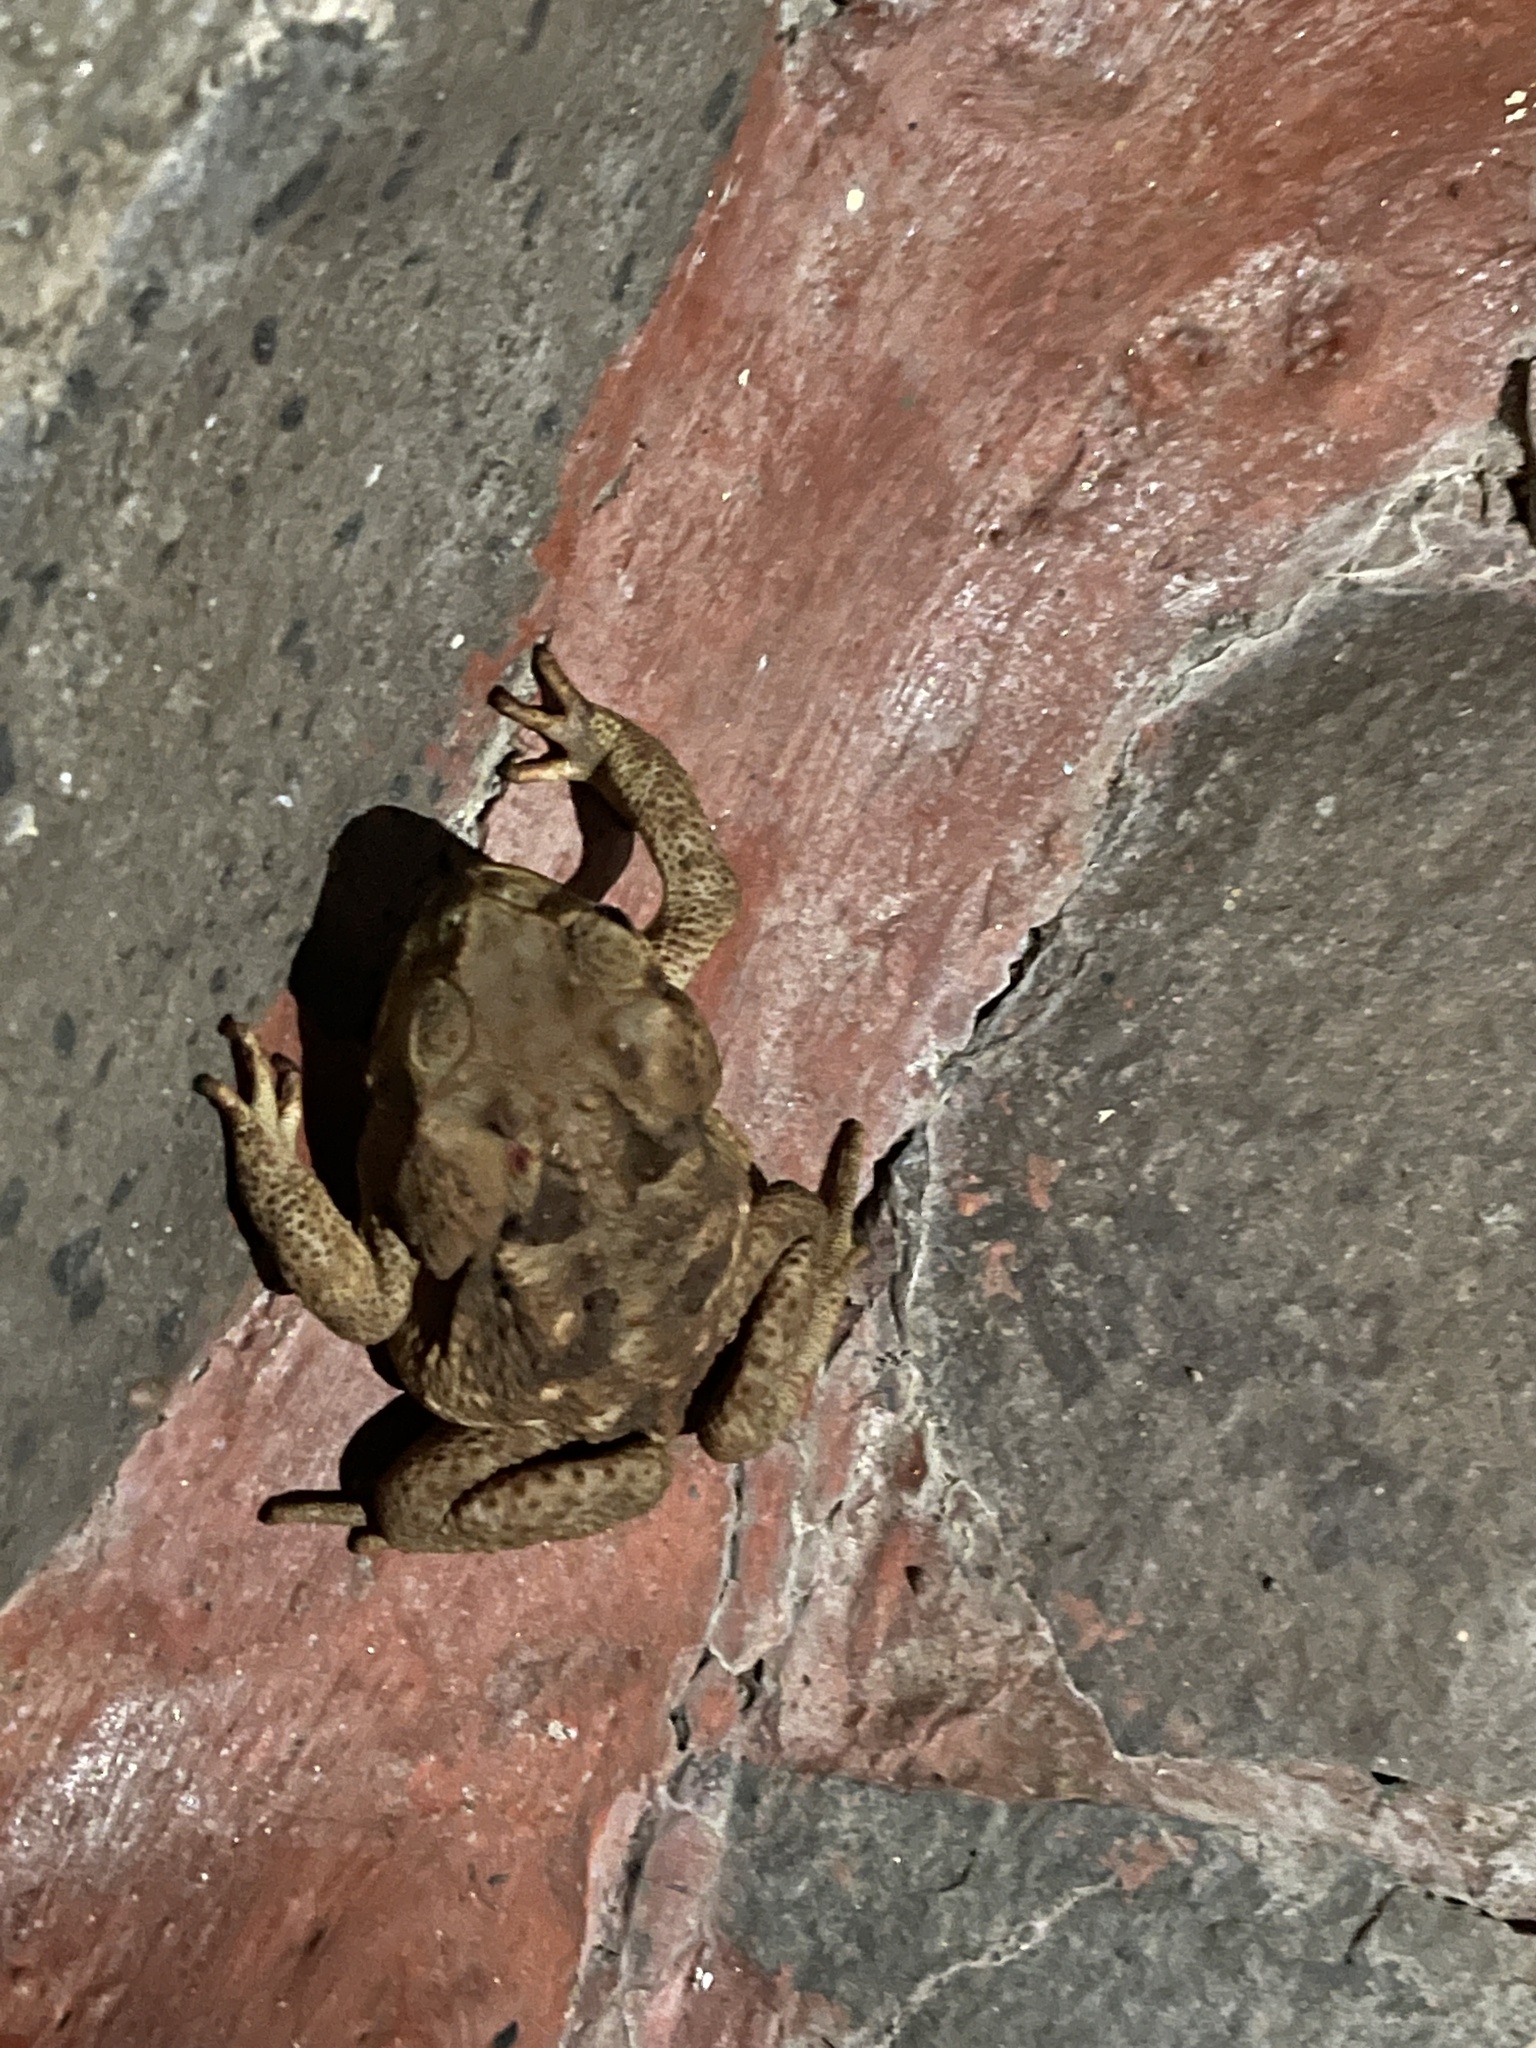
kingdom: Animalia
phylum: Chordata
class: Amphibia
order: Anura
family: Bufonidae
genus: Rhinella
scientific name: Rhinella horribilis
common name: Mesoamerican cane toad
